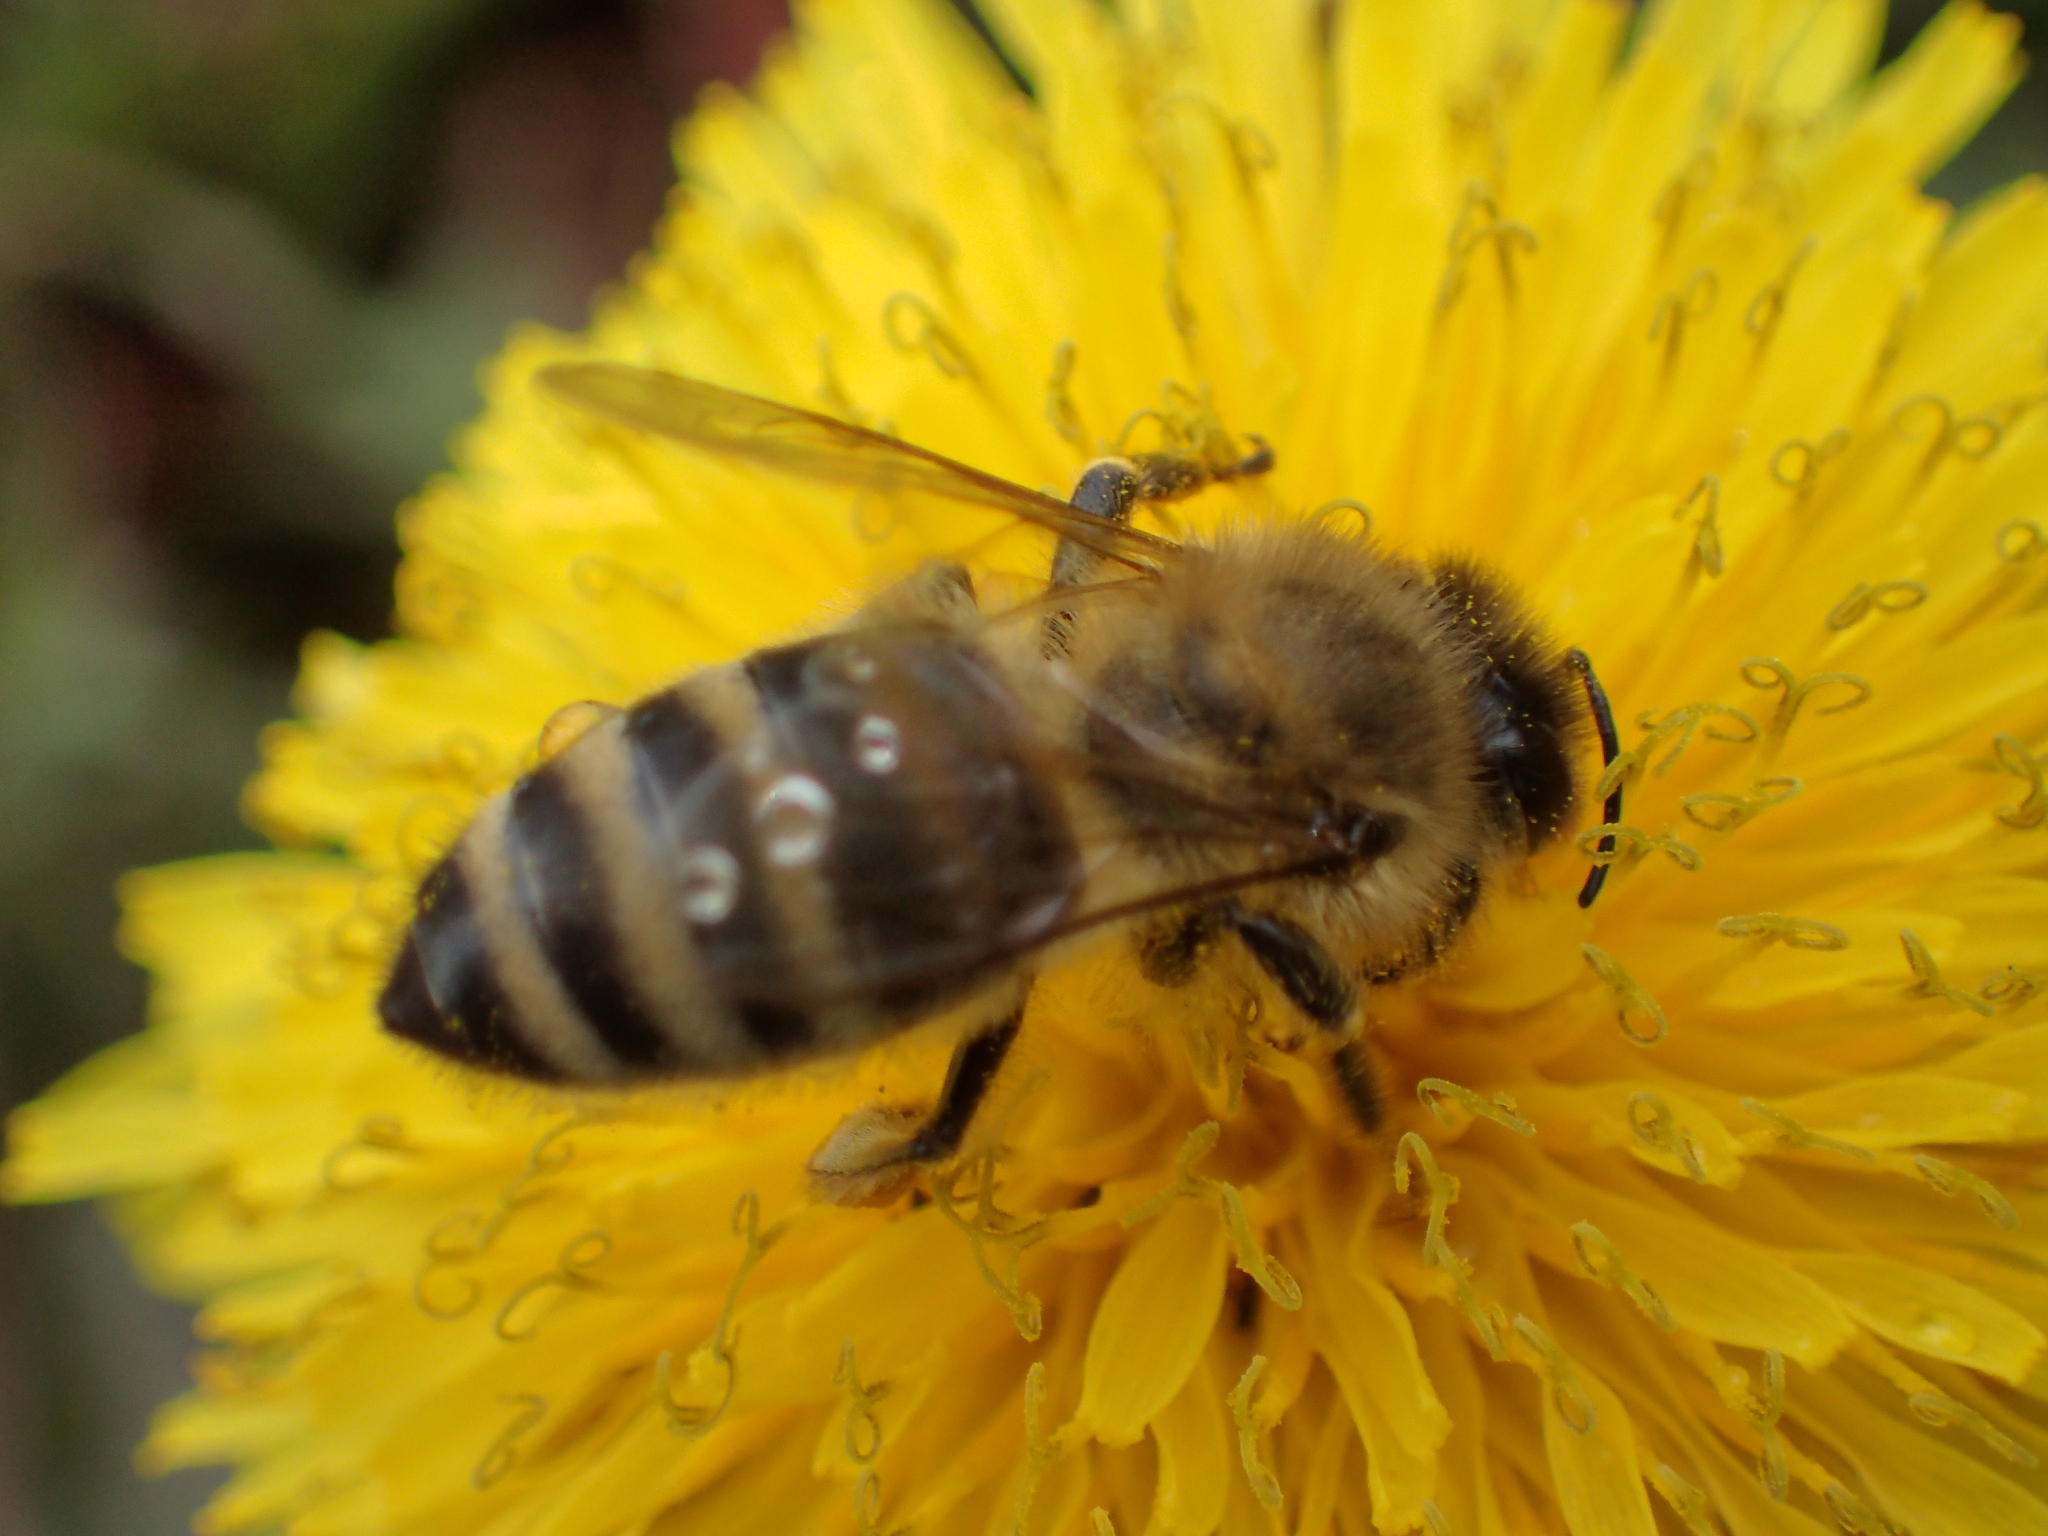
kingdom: Animalia
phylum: Arthropoda
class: Insecta
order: Hymenoptera
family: Apidae
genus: Apis
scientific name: Apis mellifera
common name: Honey bee
